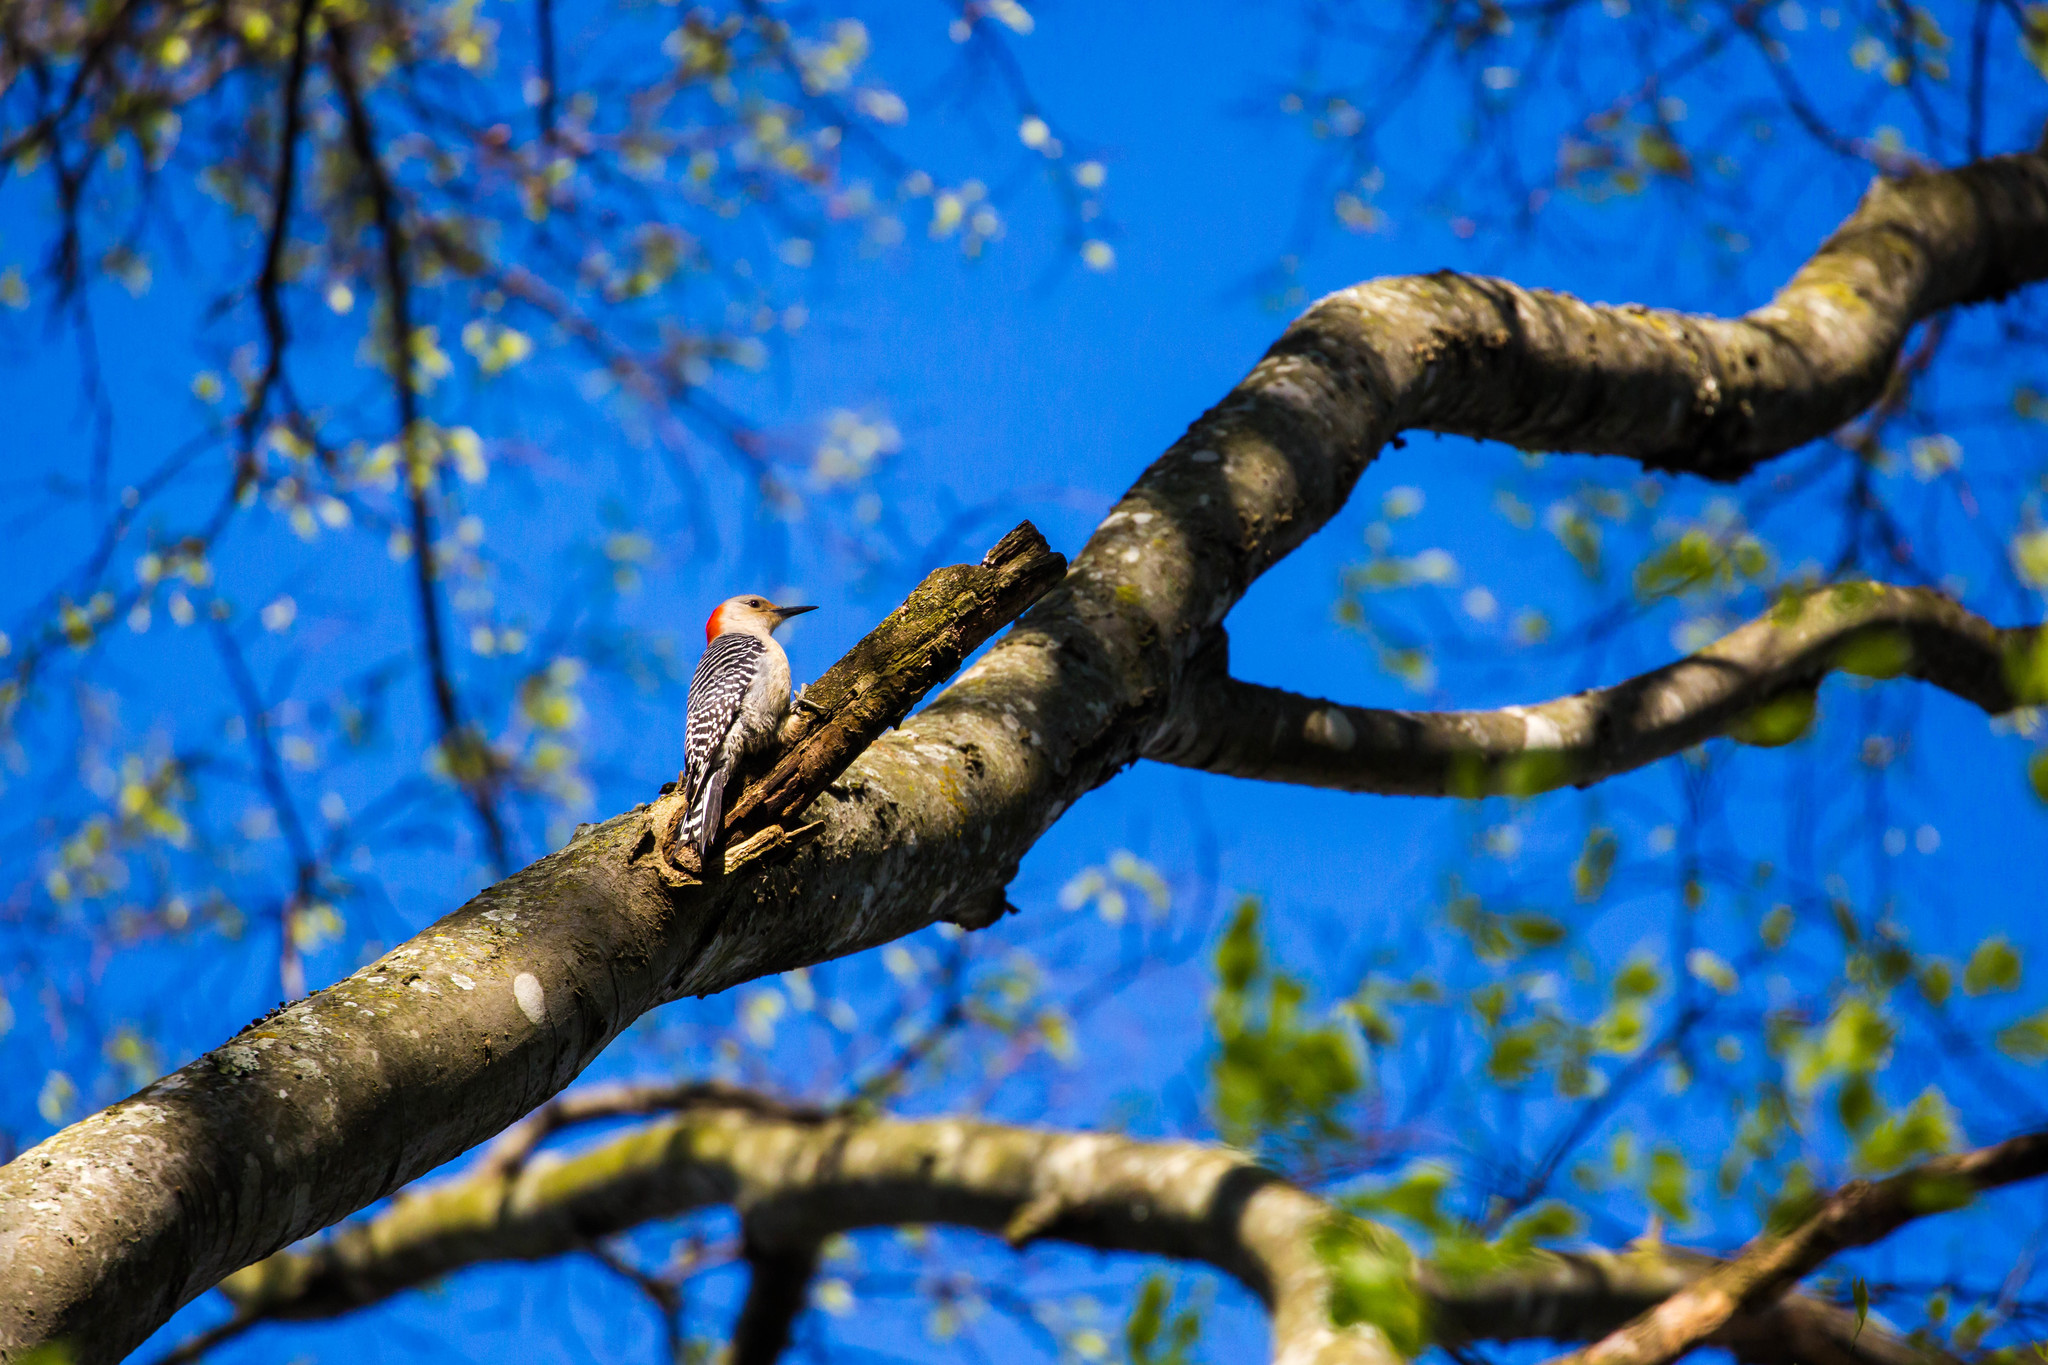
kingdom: Animalia
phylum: Chordata
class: Aves
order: Piciformes
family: Picidae
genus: Melanerpes
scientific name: Melanerpes carolinus
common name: Red-bellied woodpecker
